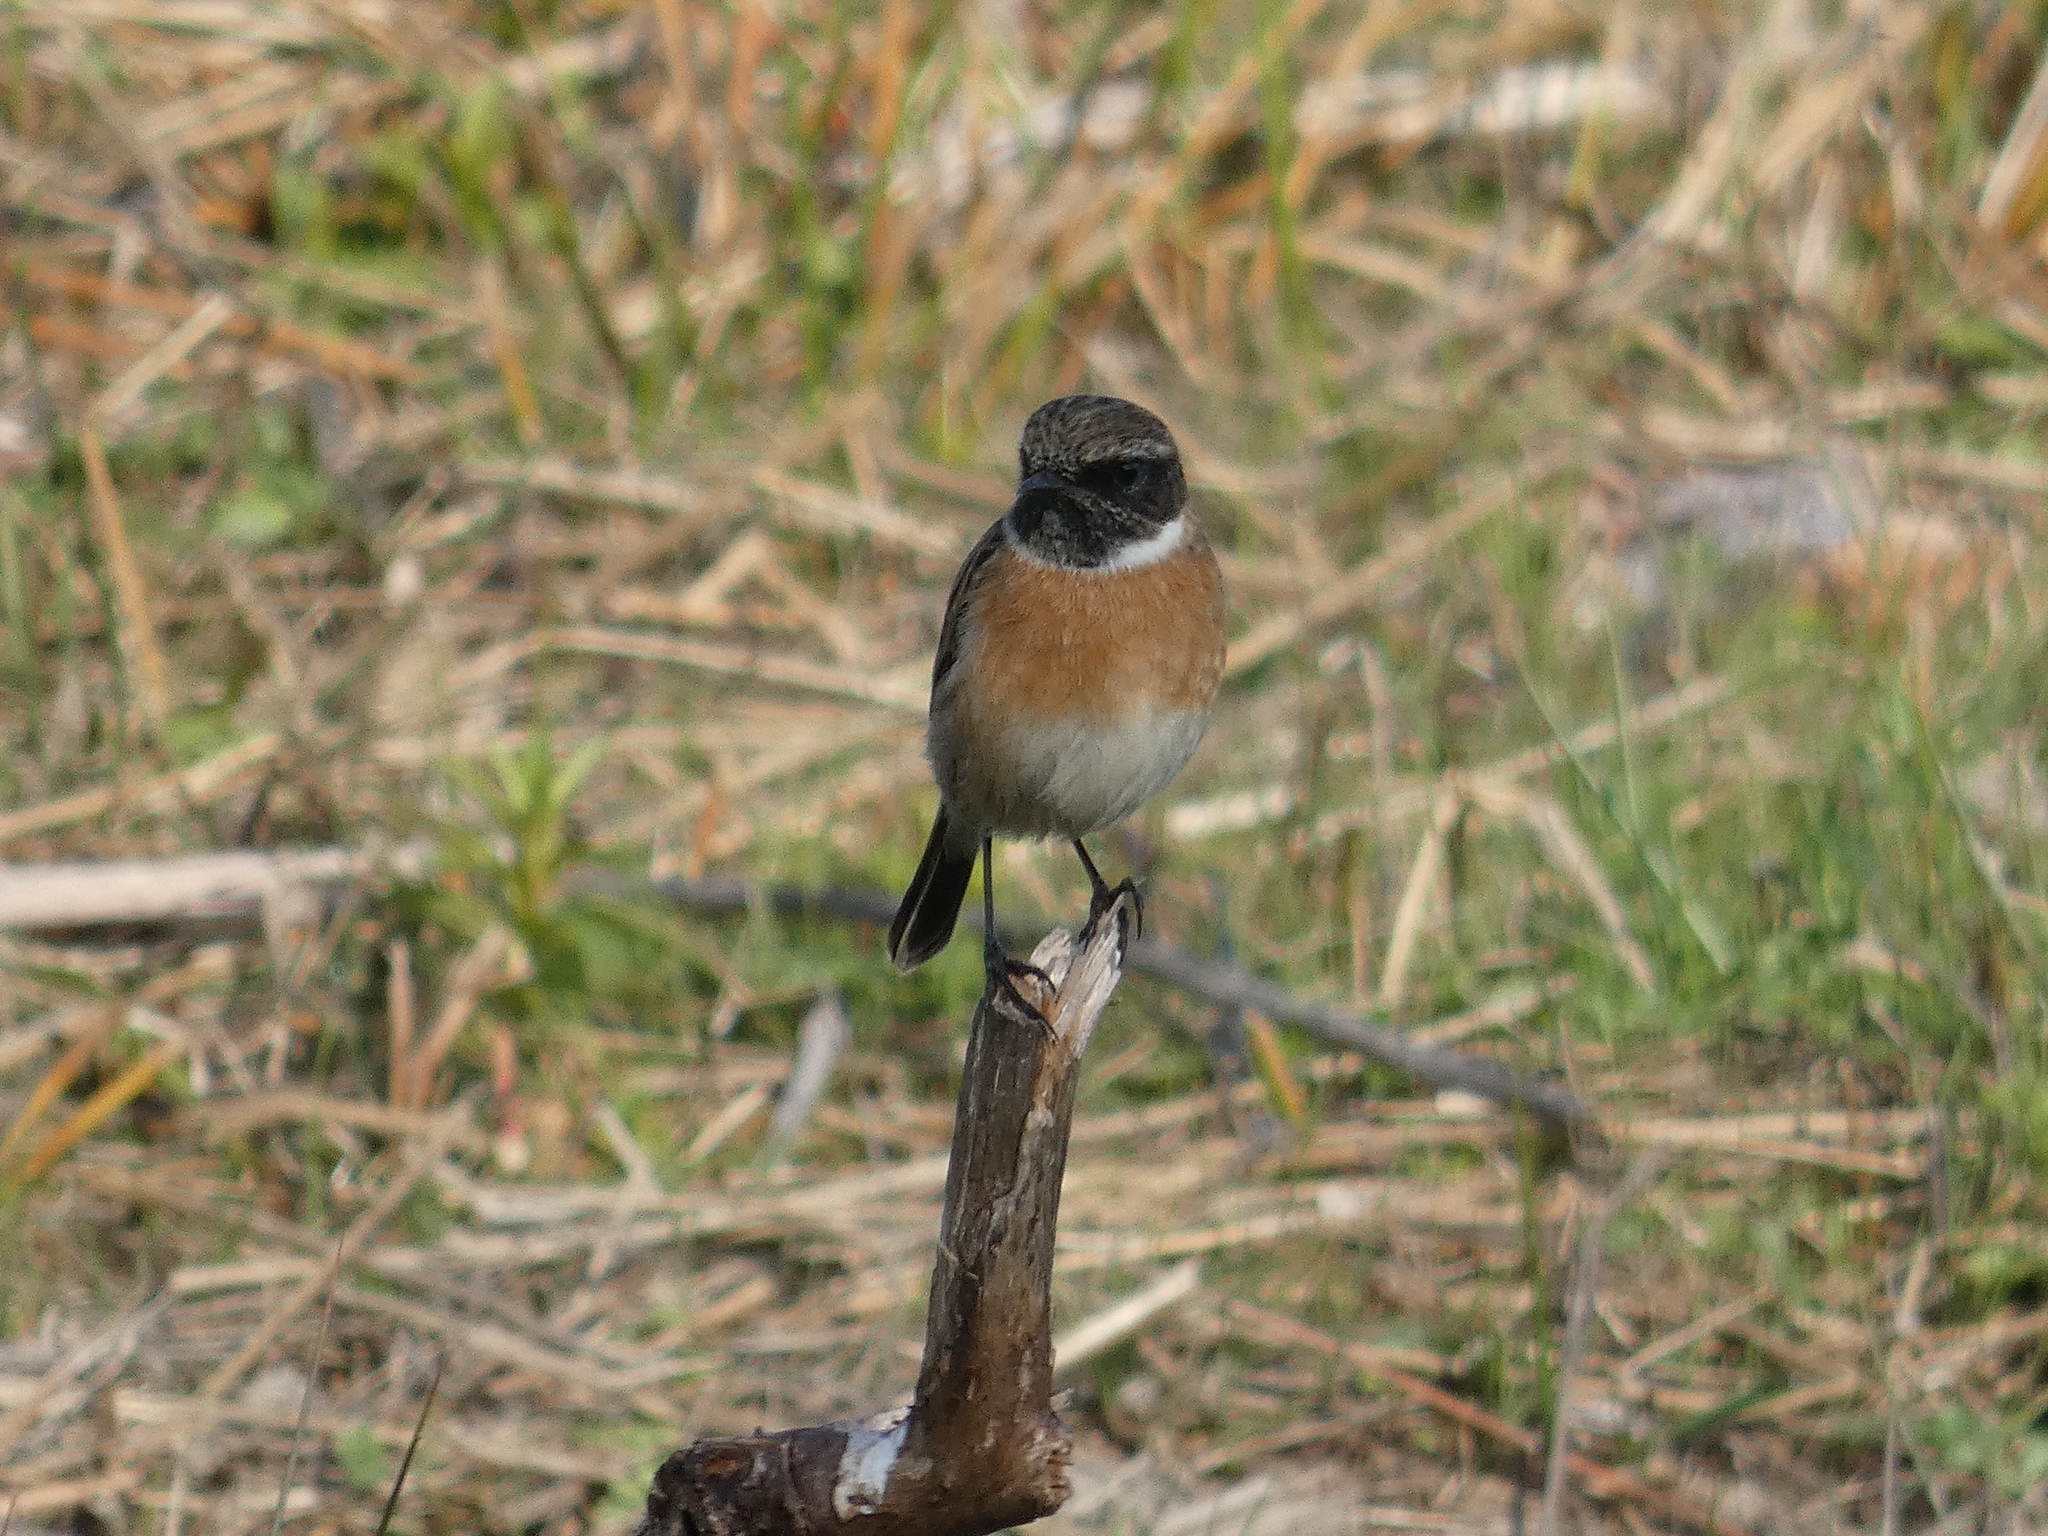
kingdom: Animalia
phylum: Chordata
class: Aves
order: Passeriformes
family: Muscicapidae
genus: Saxicola
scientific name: Saxicola rubicola
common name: European stonechat
